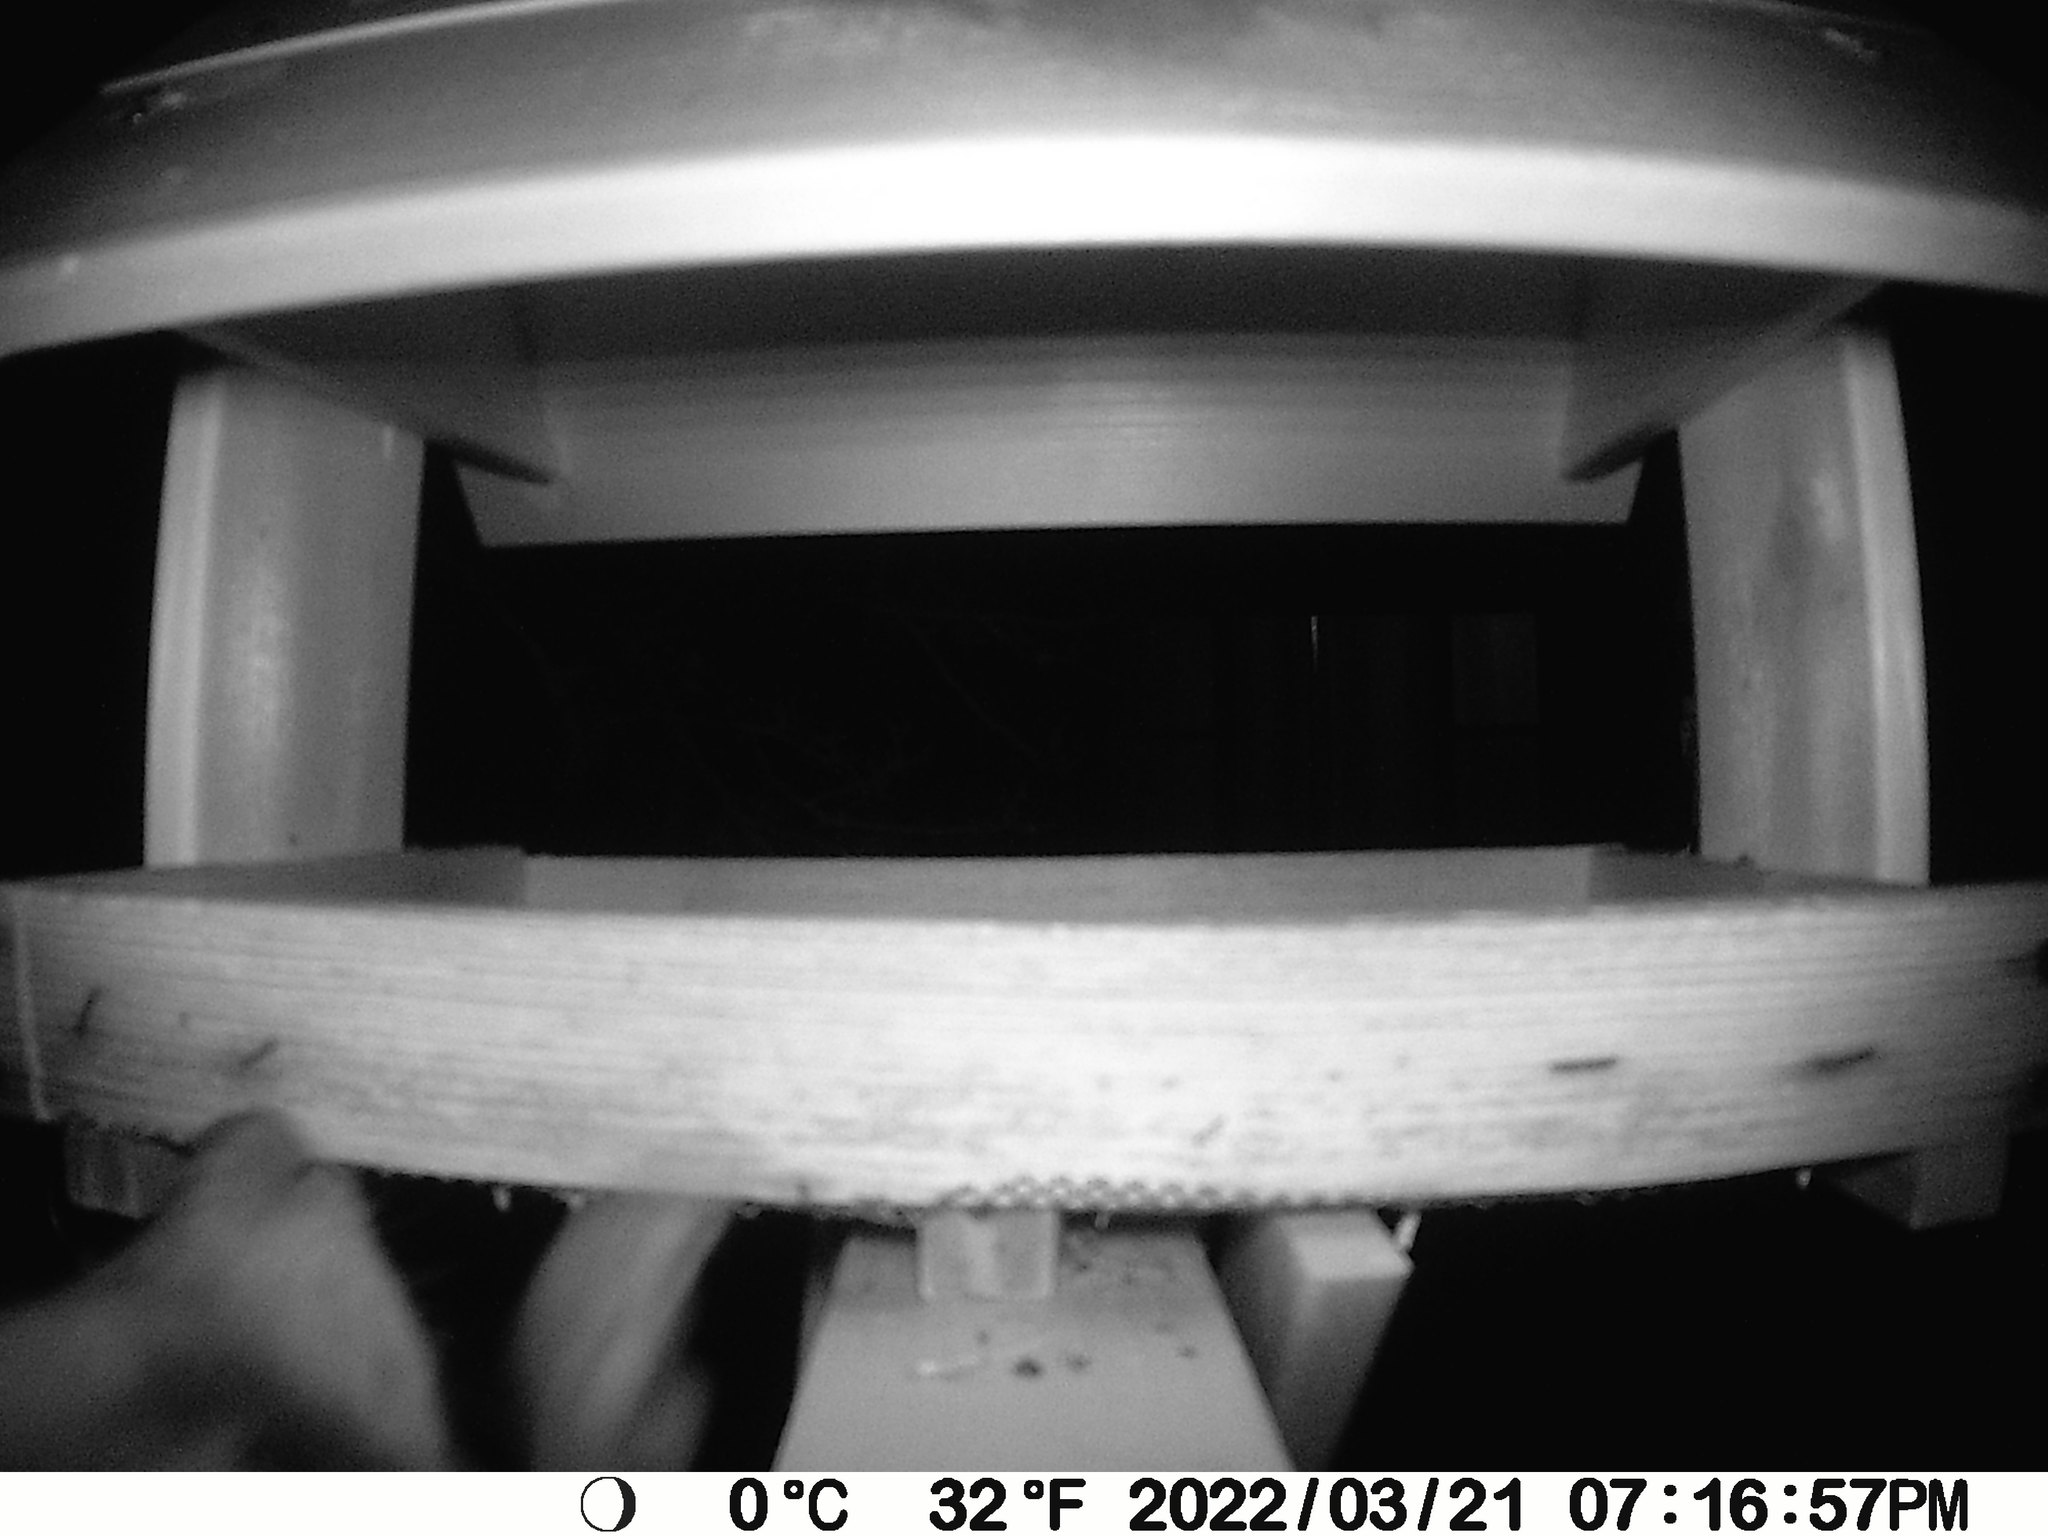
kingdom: Animalia
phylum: Chordata
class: Mammalia
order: Carnivora
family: Procyonidae
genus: Procyon
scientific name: Procyon lotor
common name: Raccoon
